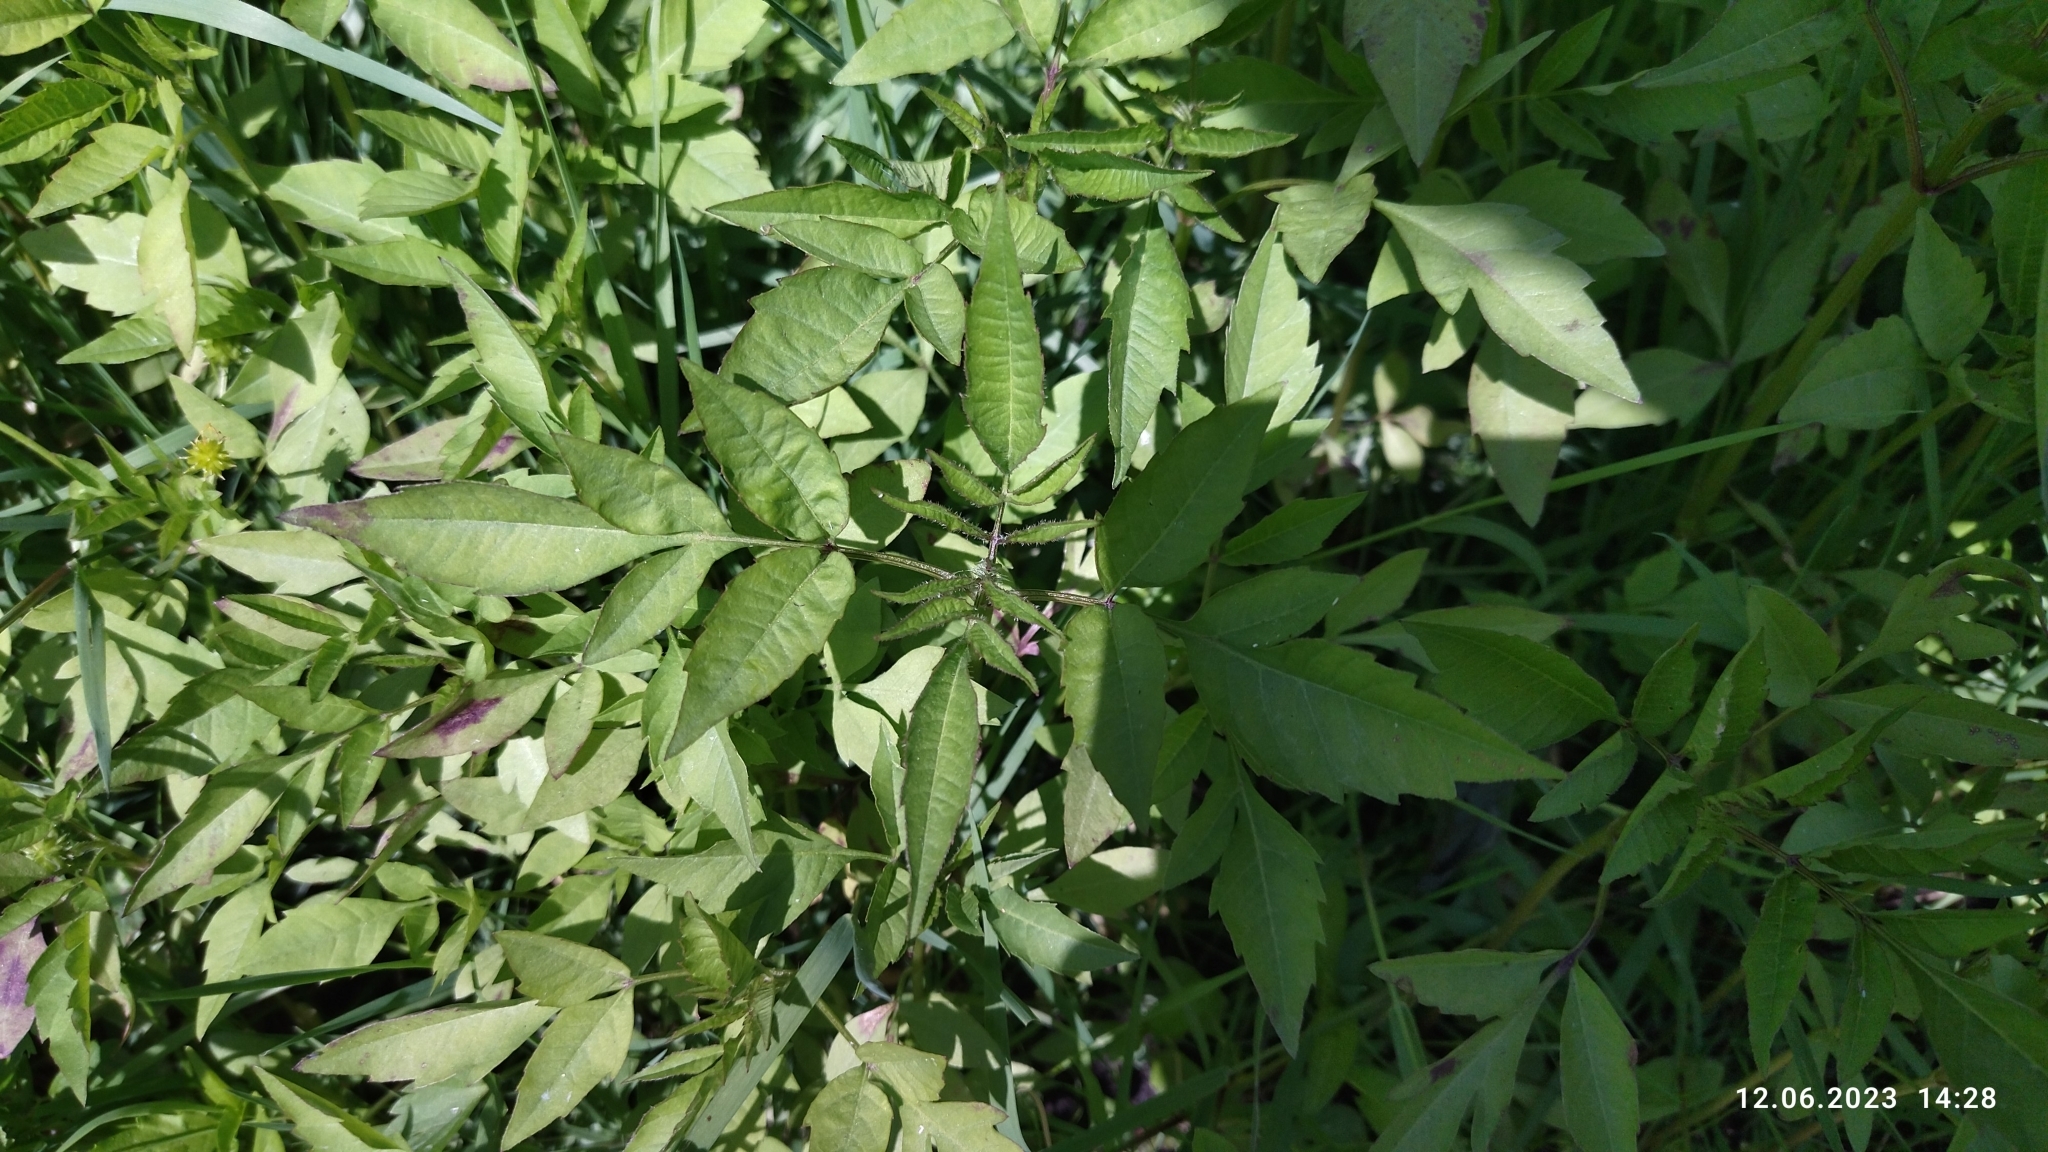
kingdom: Plantae
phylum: Tracheophyta
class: Magnoliopsida
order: Asterales
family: Asteraceae
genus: Bidens
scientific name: Bidens frondosa
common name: Beggarticks
